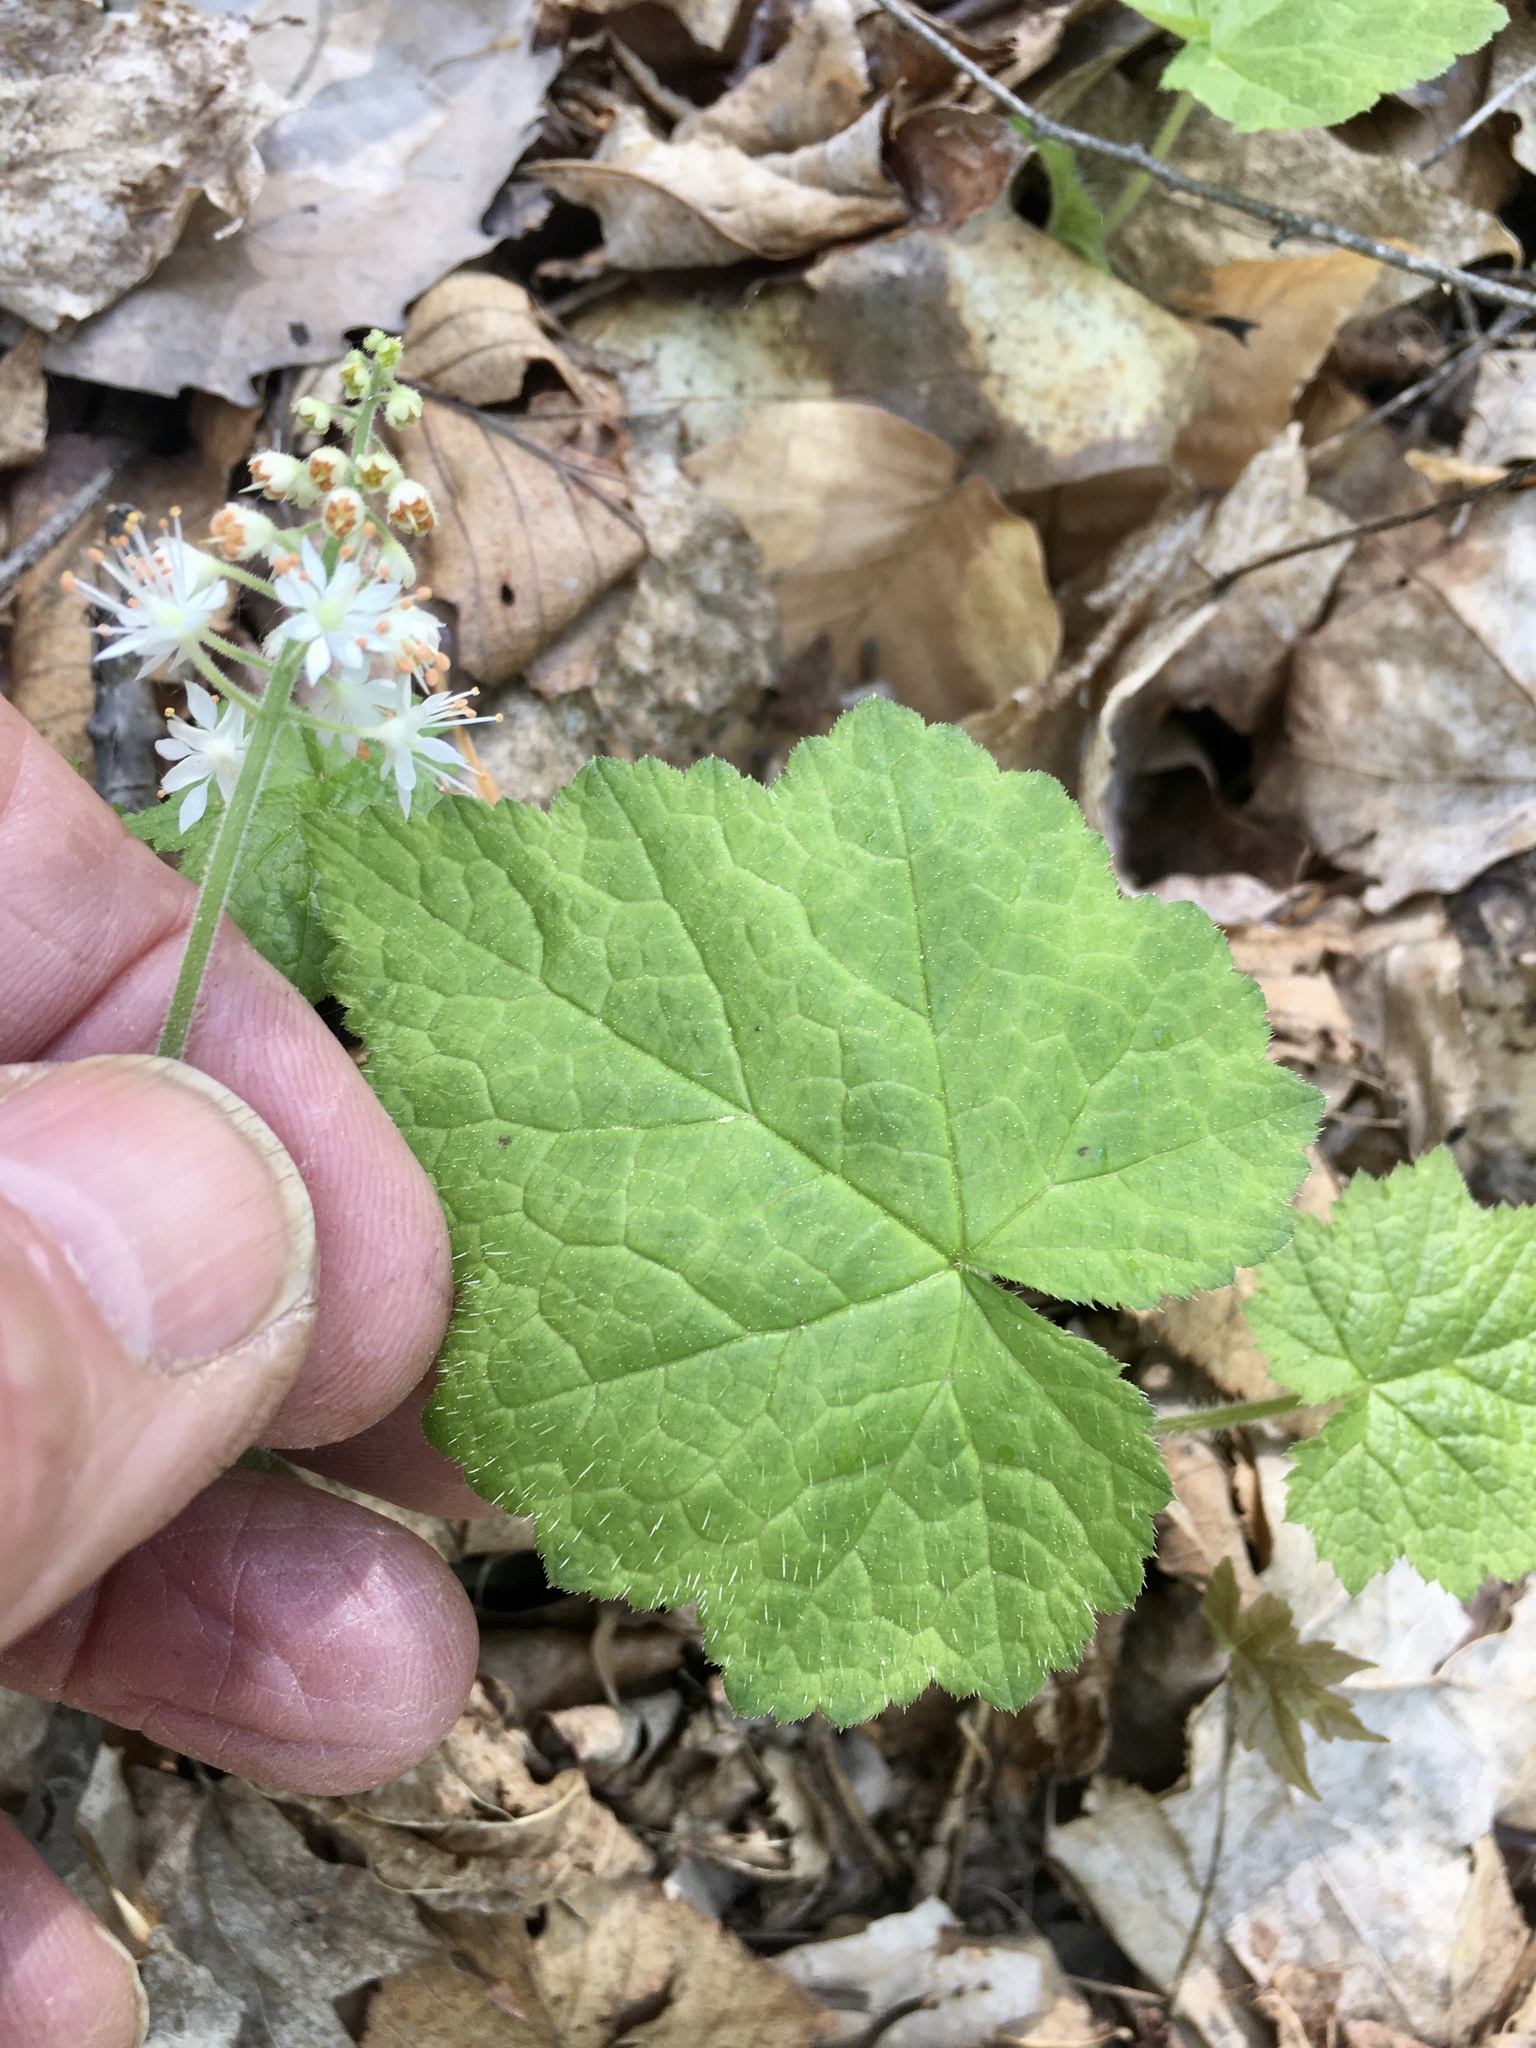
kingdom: Plantae
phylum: Tracheophyta
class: Magnoliopsida
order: Saxifragales
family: Saxifragaceae
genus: Tiarella
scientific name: Tiarella stolonifera
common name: Stoloniferous foamflower
